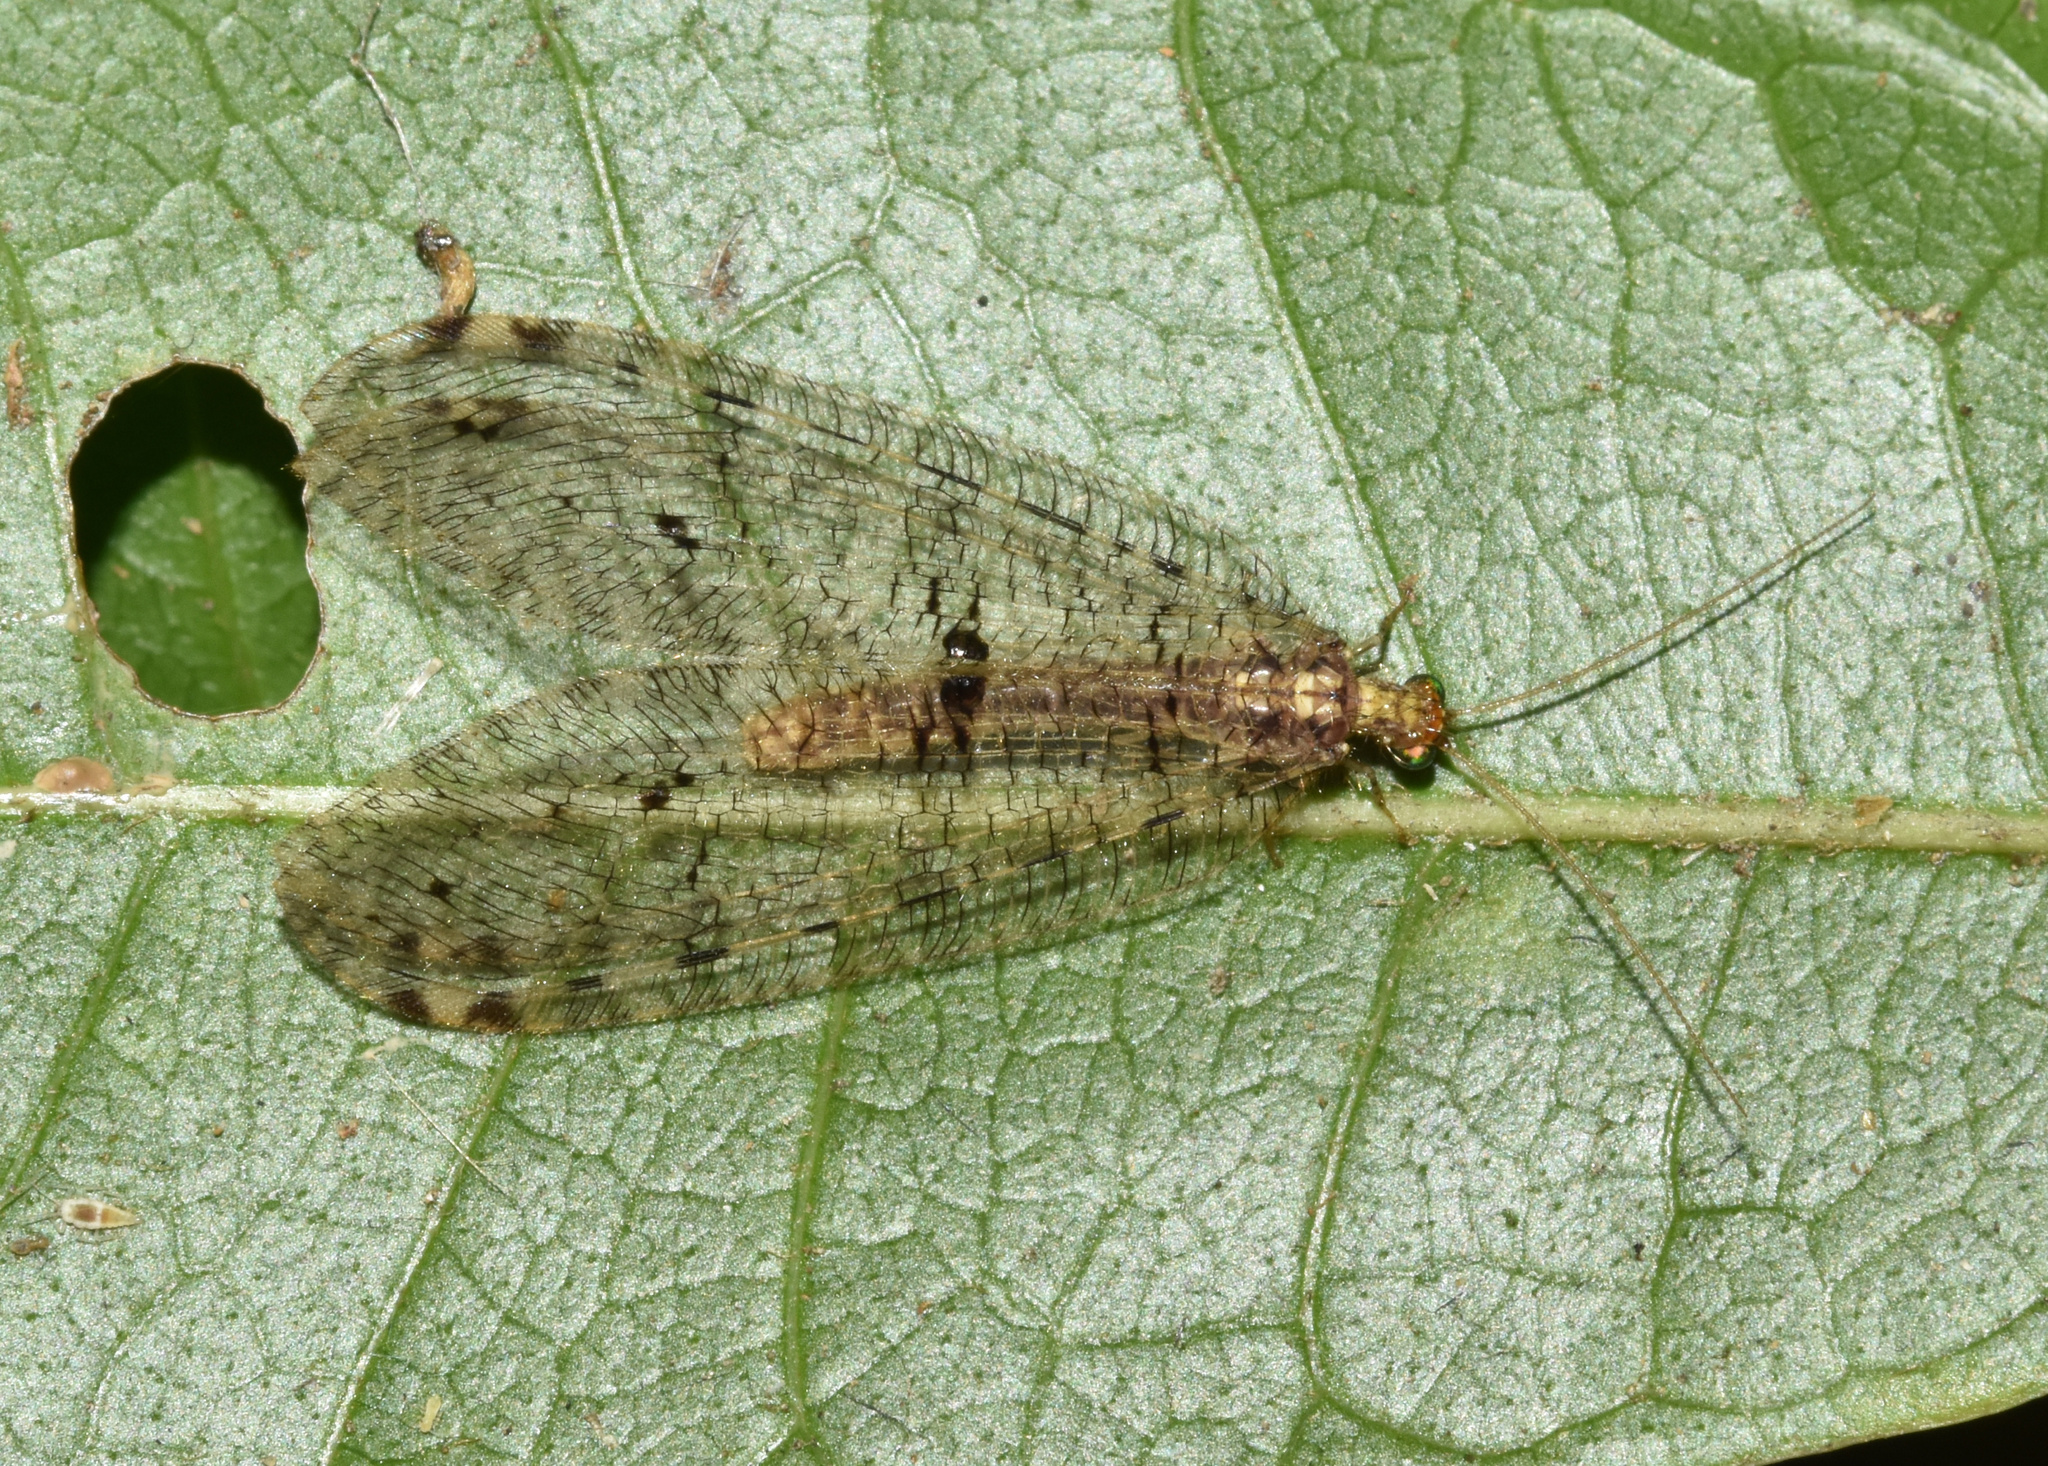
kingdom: Animalia
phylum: Arthropoda
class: Insecta
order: Neuroptera
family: Osmylidae
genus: Spilosmylus
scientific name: Spilosmylus interlineatus
